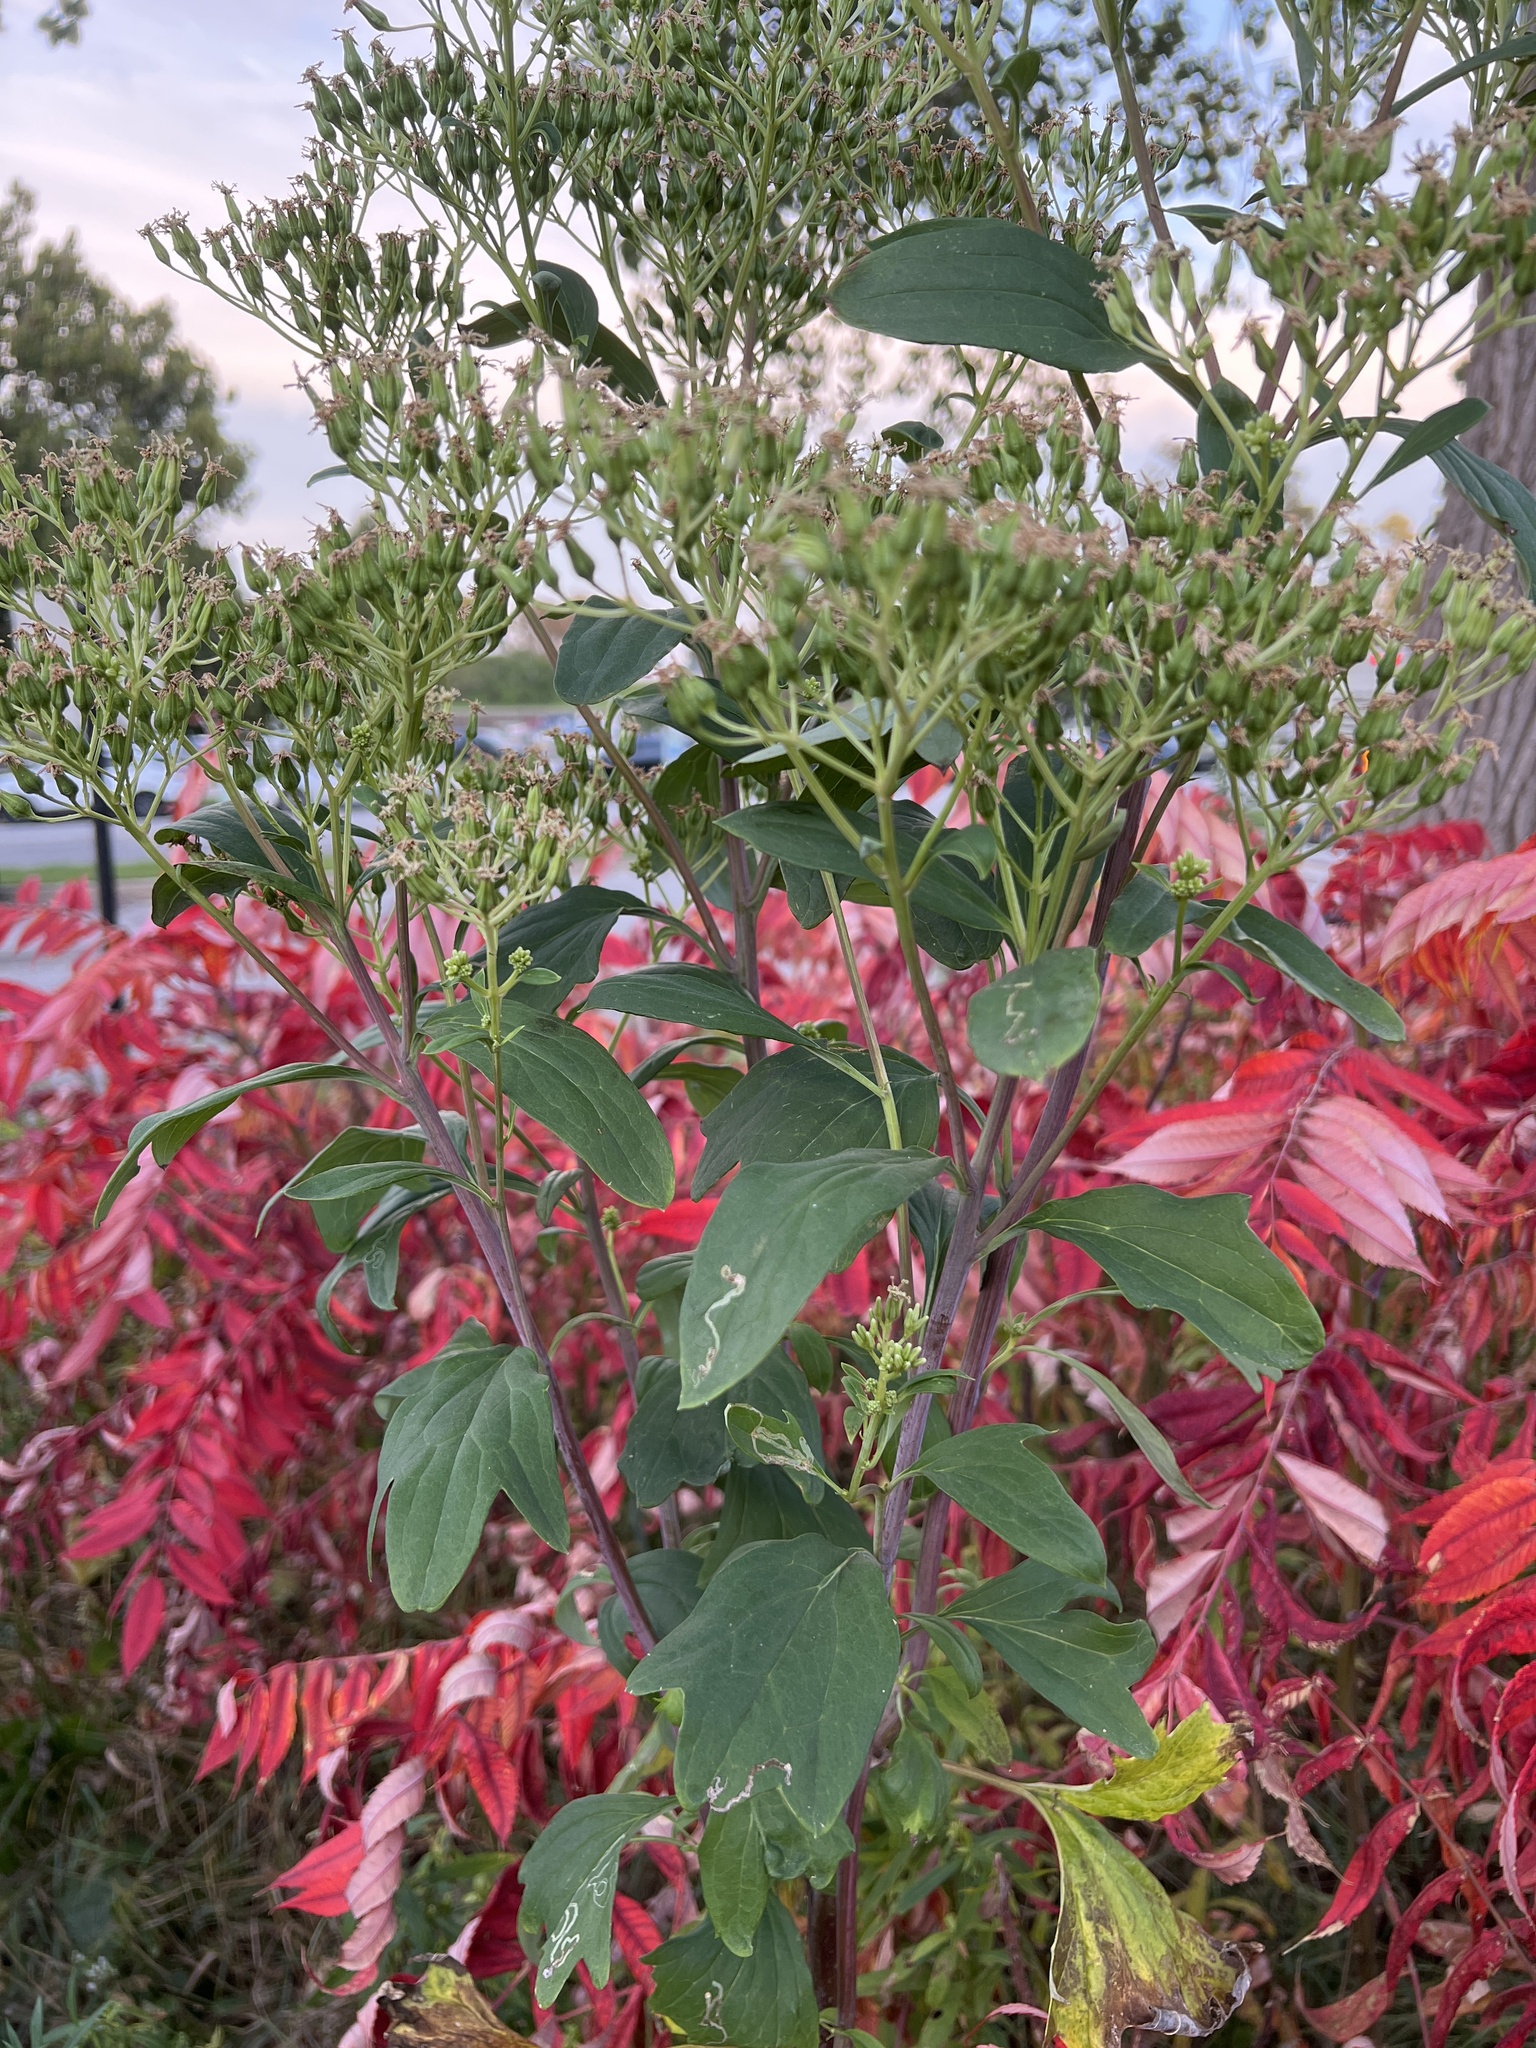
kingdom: Plantae
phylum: Tracheophyta
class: Magnoliopsida
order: Asterales
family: Asteraceae
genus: Arnoglossum
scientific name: Arnoglossum atriplicifolium
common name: Pale indian-plantain
